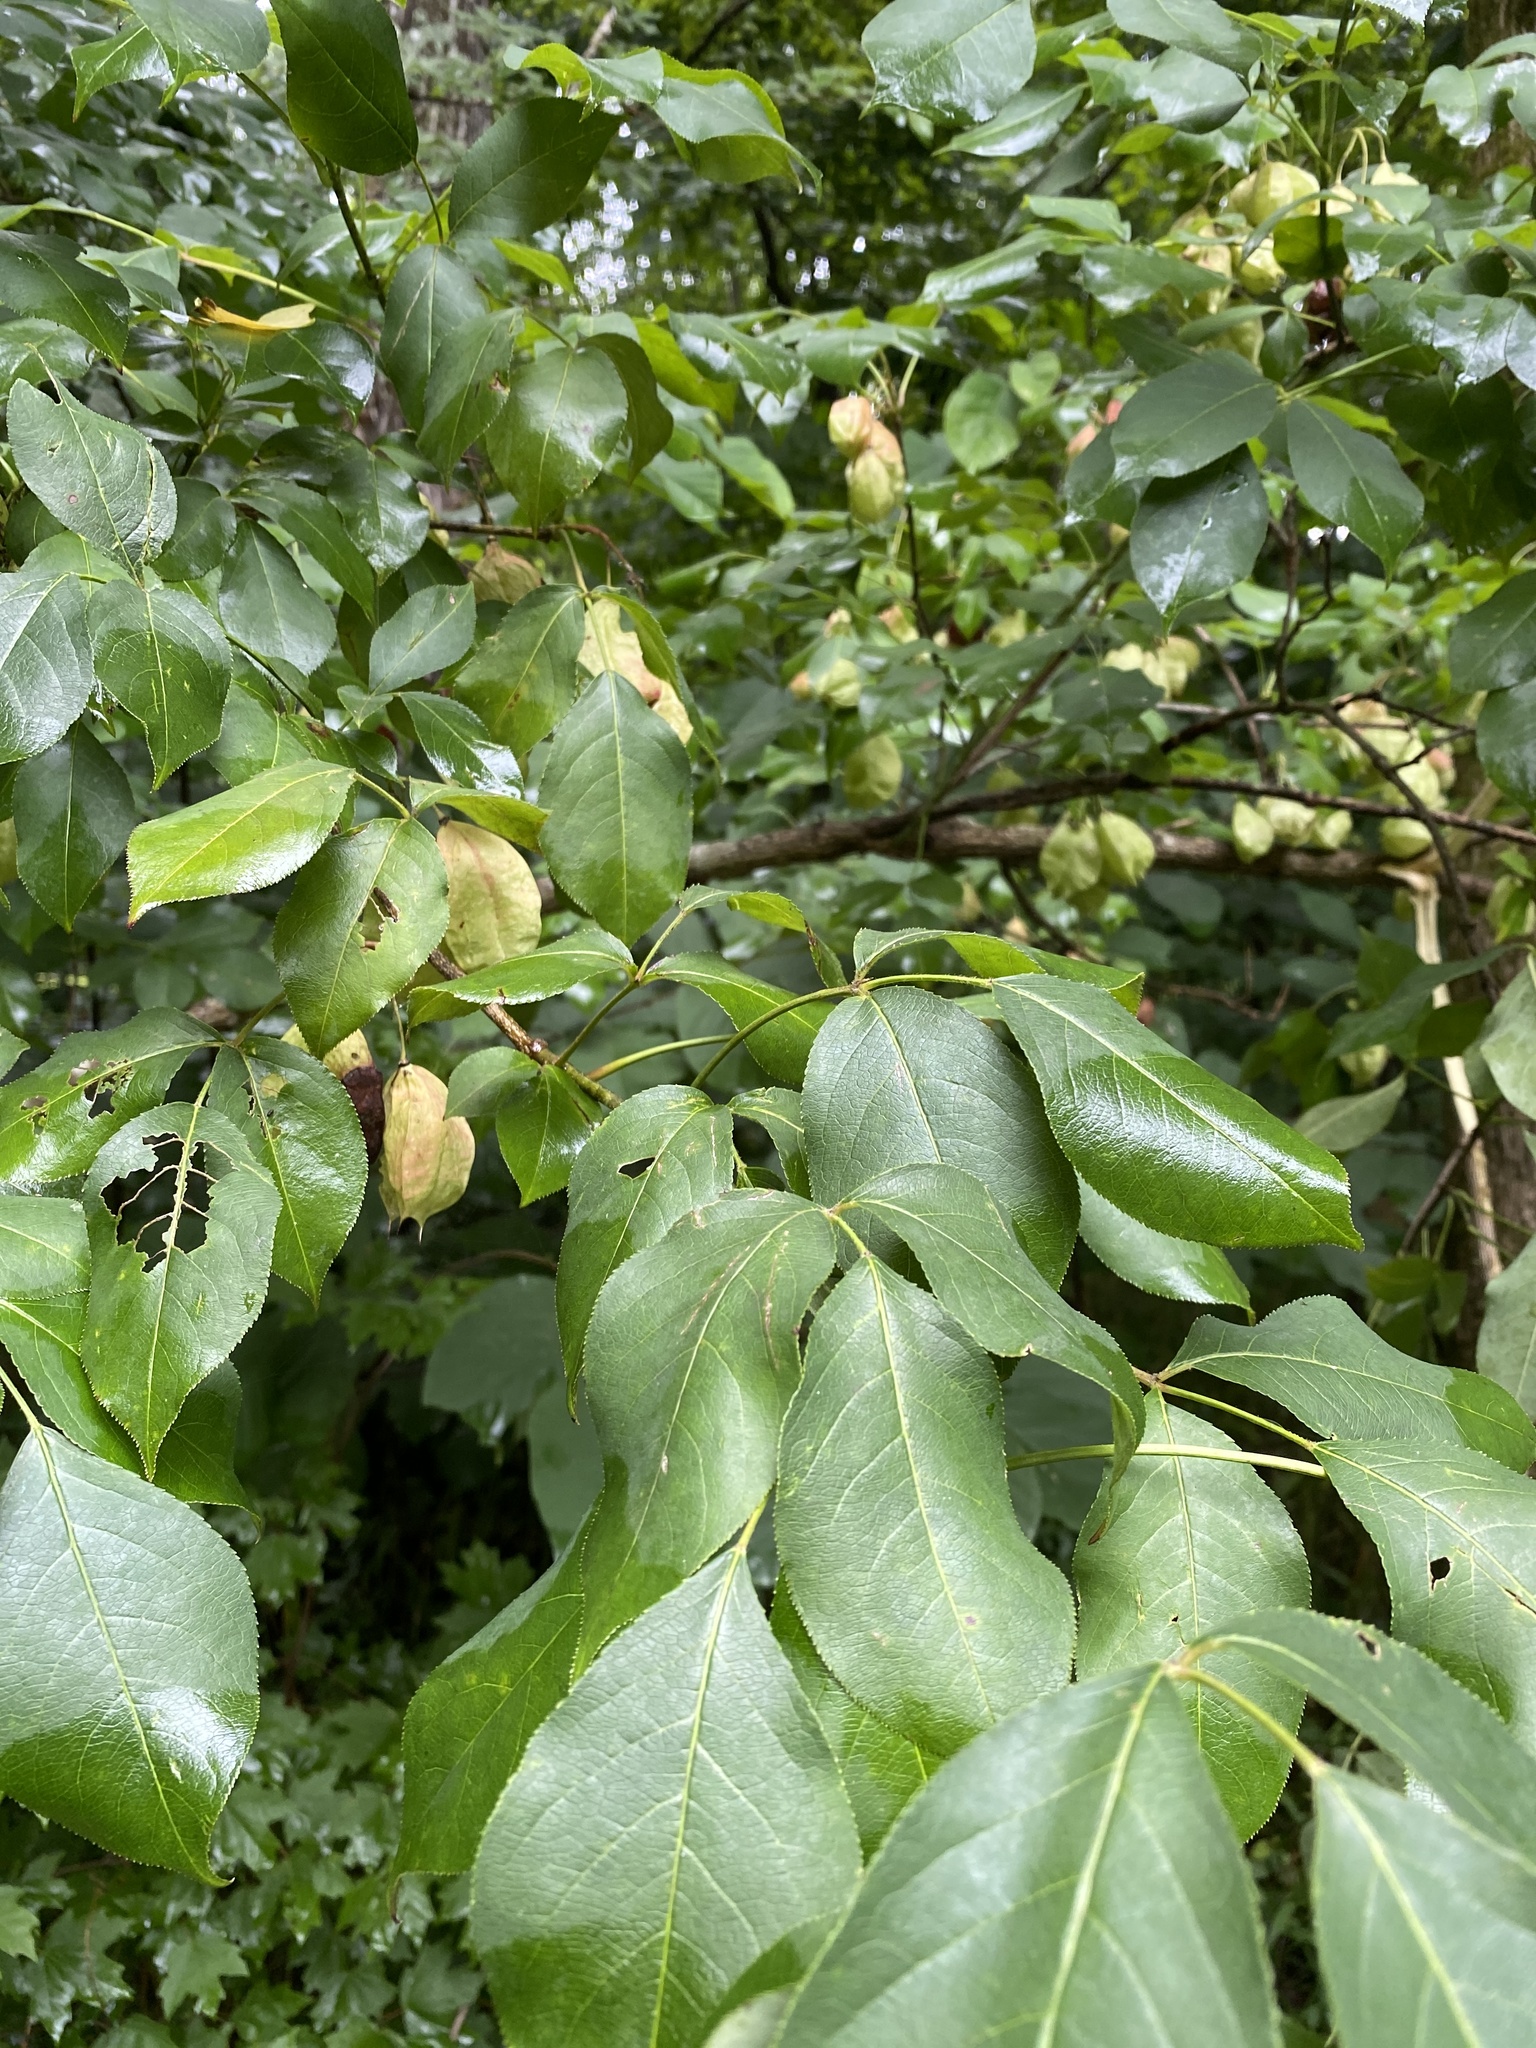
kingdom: Plantae
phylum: Tracheophyta
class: Magnoliopsida
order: Crossosomatales
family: Staphyleaceae
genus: Staphylea
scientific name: Staphylea trifolia
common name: American bladdernut
